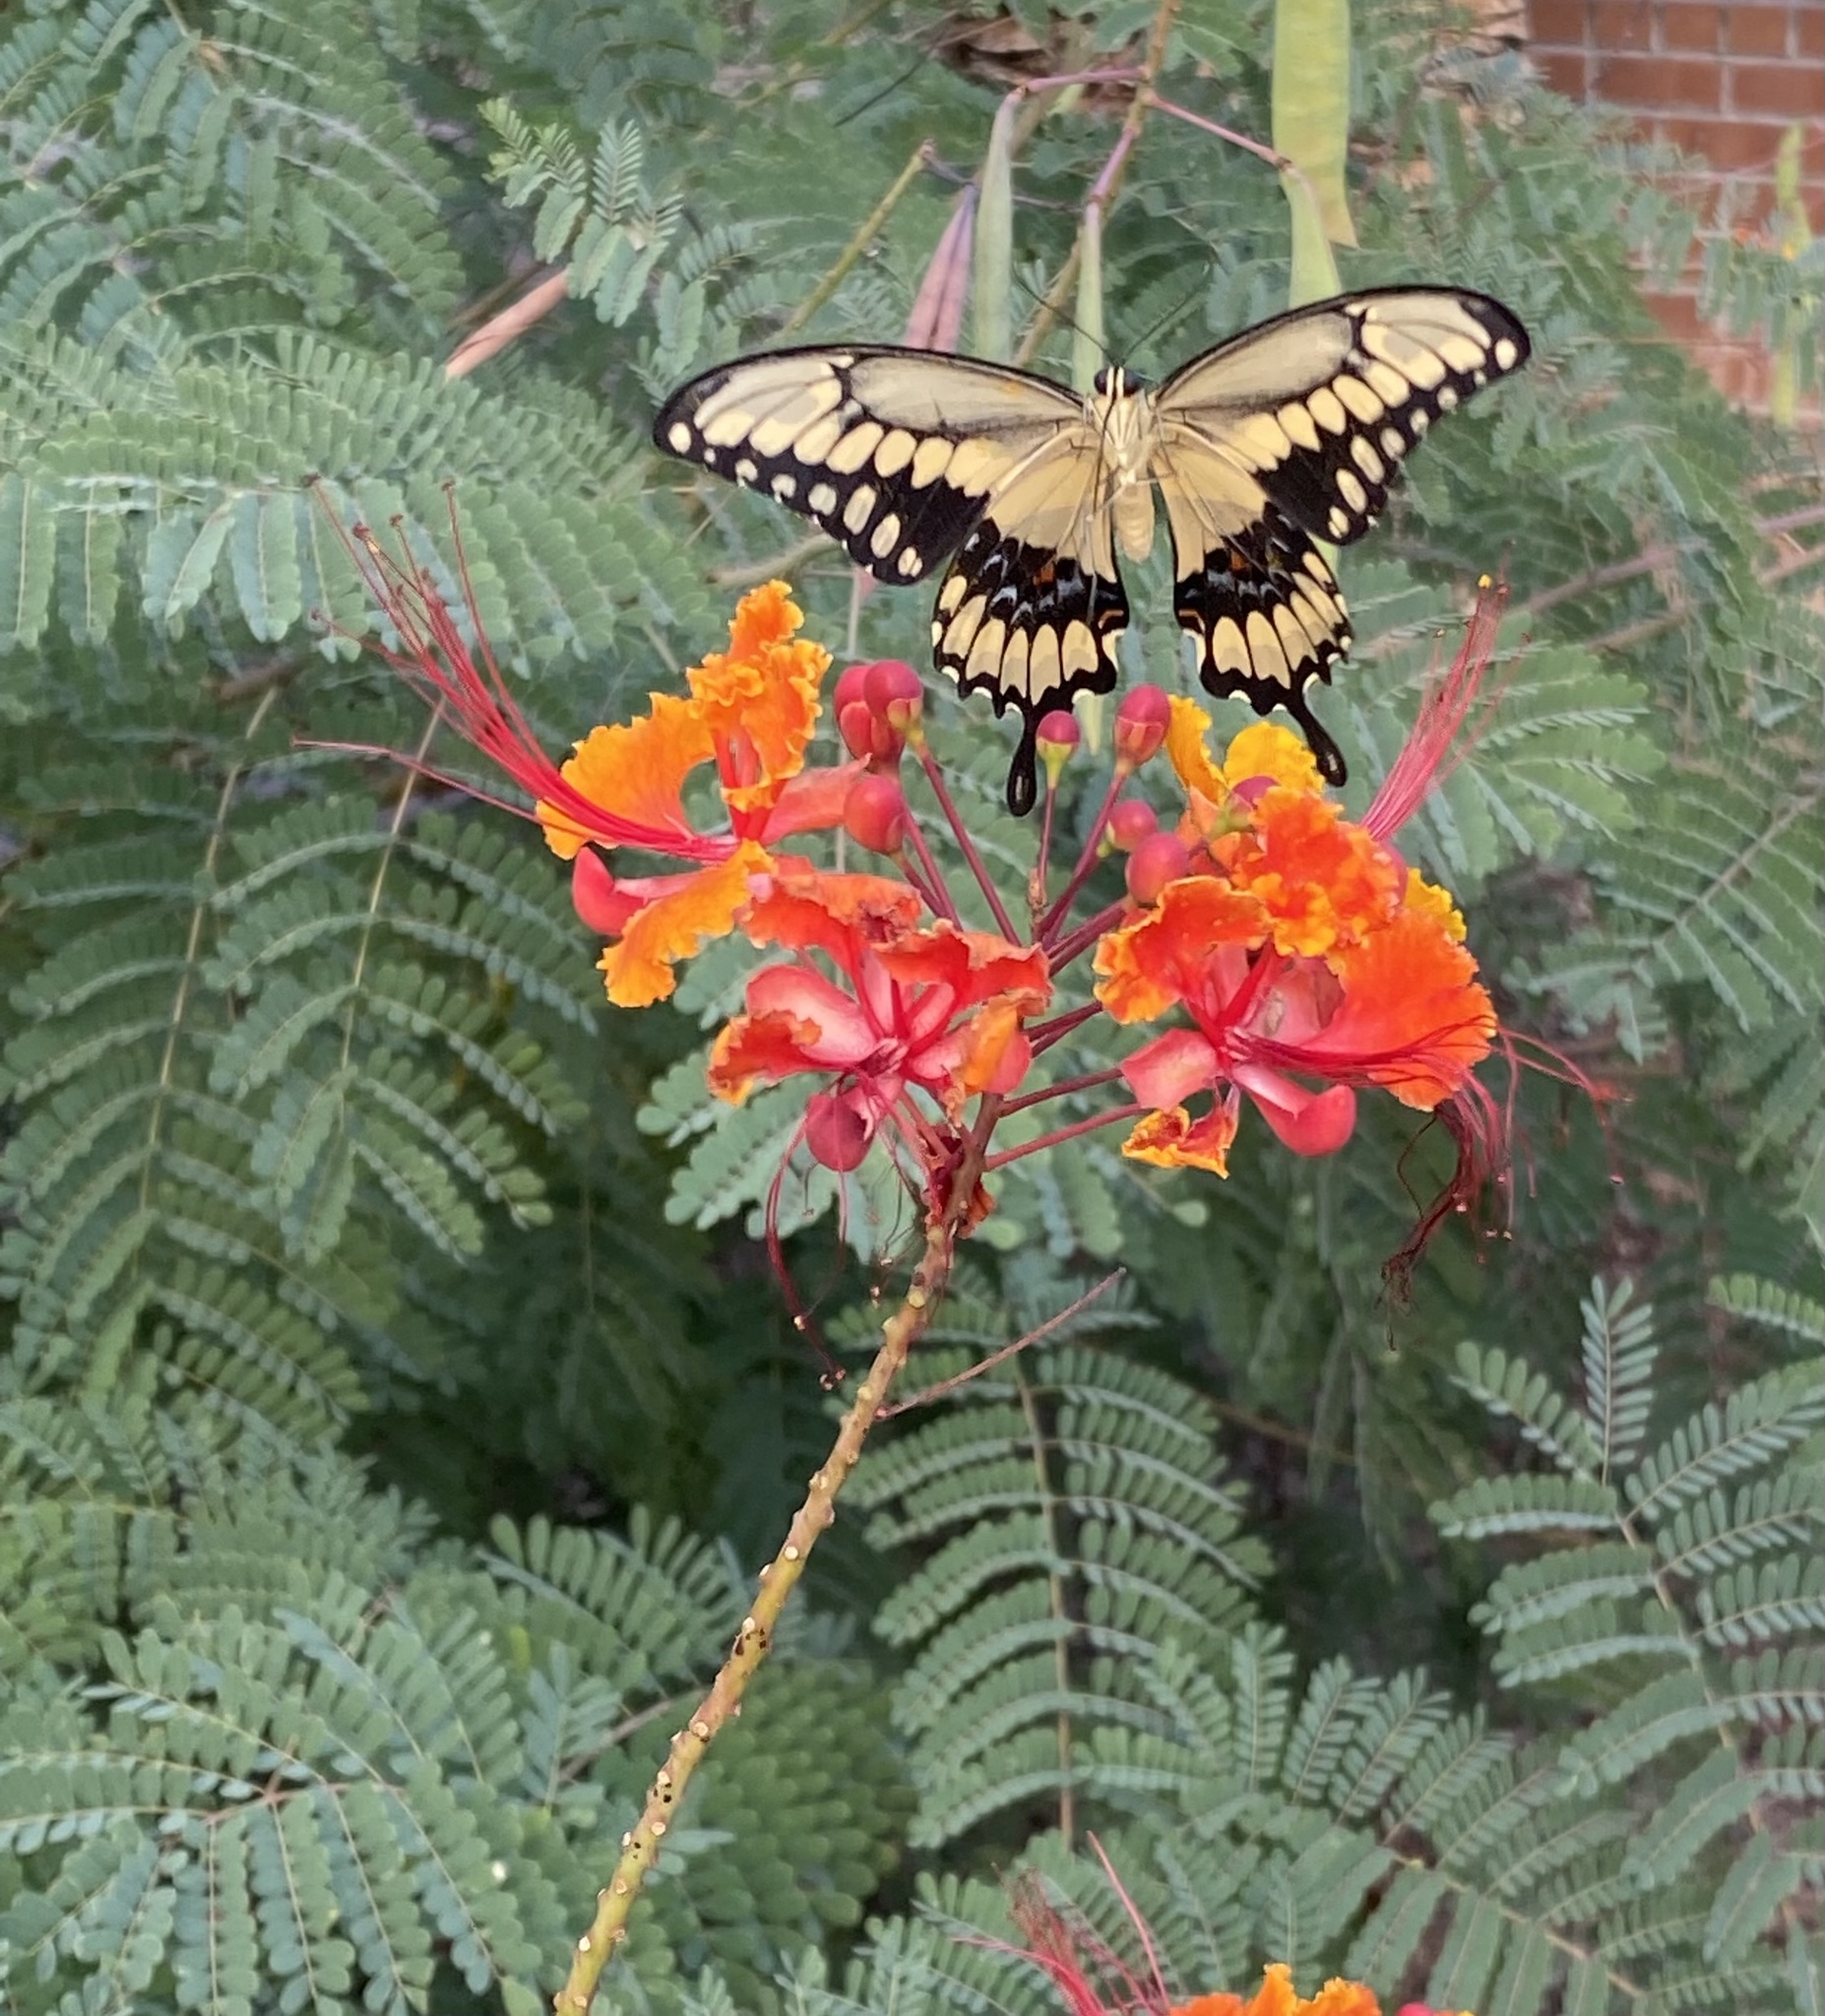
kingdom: Animalia
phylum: Arthropoda
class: Insecta
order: Lepidoptera
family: Papilionidae
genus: Papilio
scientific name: Papilio rumiko
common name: Western giant swallowtail
